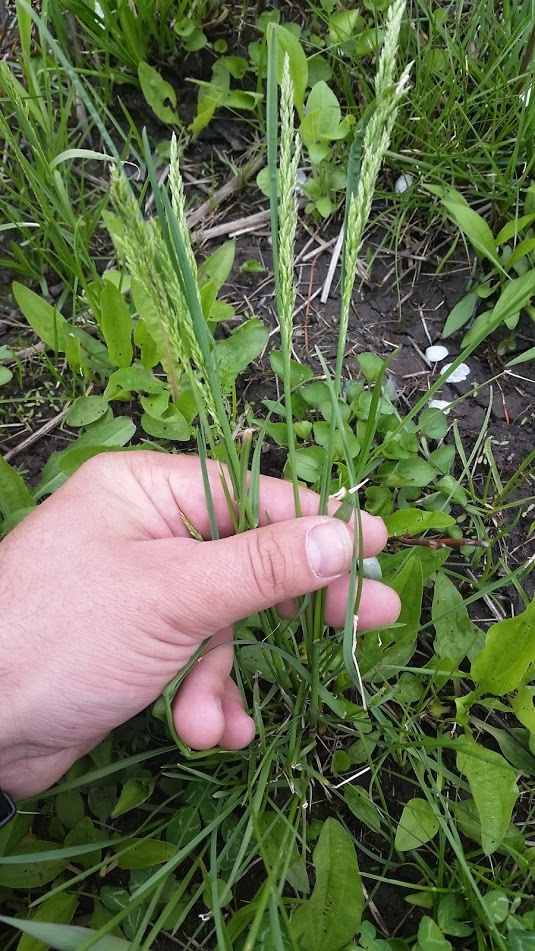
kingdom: Plantae
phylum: Tracheophyta
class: Liliopsida
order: Poales
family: Poaceae
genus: Lolium
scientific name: Lolium arundinaceum
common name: Reed fescue
